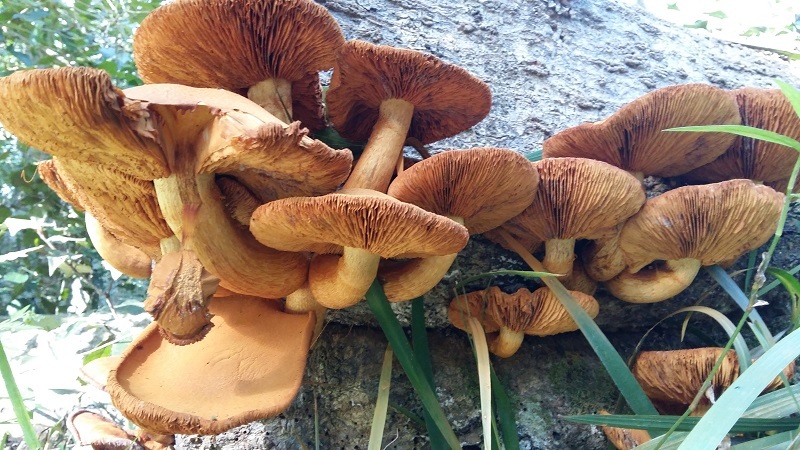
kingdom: Fungi
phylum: Basidiomycota
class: Agaricomycetes
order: Agaricales
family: Hymenogastraceae
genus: Gymnopilus
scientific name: Gymnopilus junonius
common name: Spectacular rustgill
